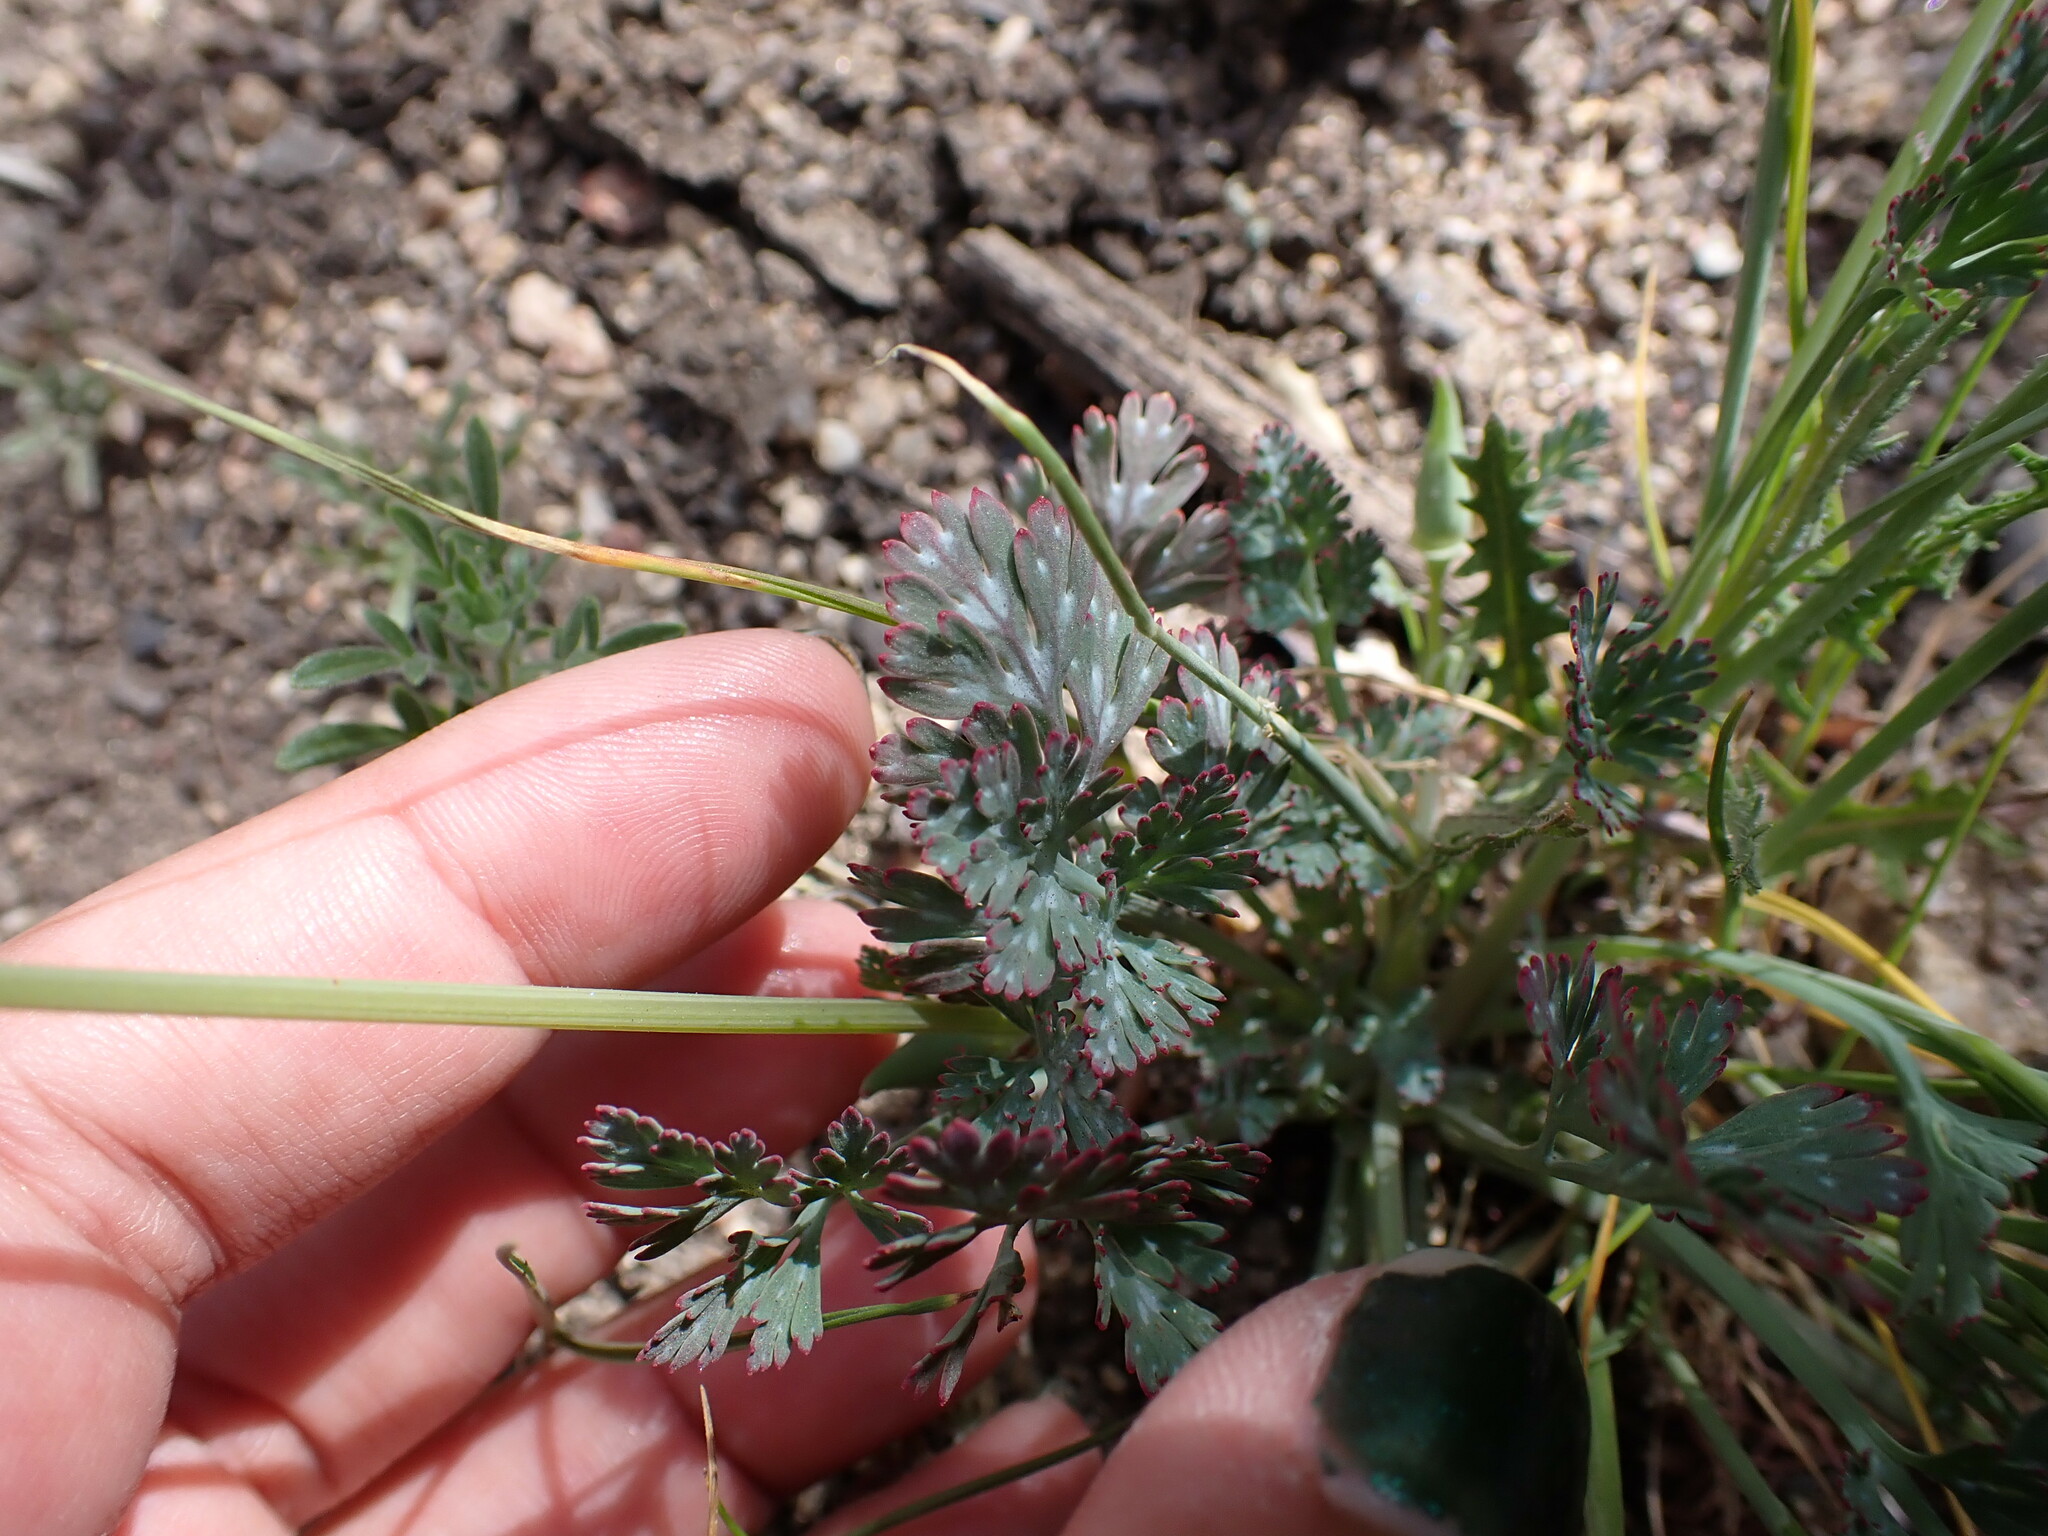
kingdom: Plantae
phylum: Tracheophyta
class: Magnoliopsida
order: Ranunculales
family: Papaveraceae
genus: Eschscholzia
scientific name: Eschscholzia californica
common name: California poppy
